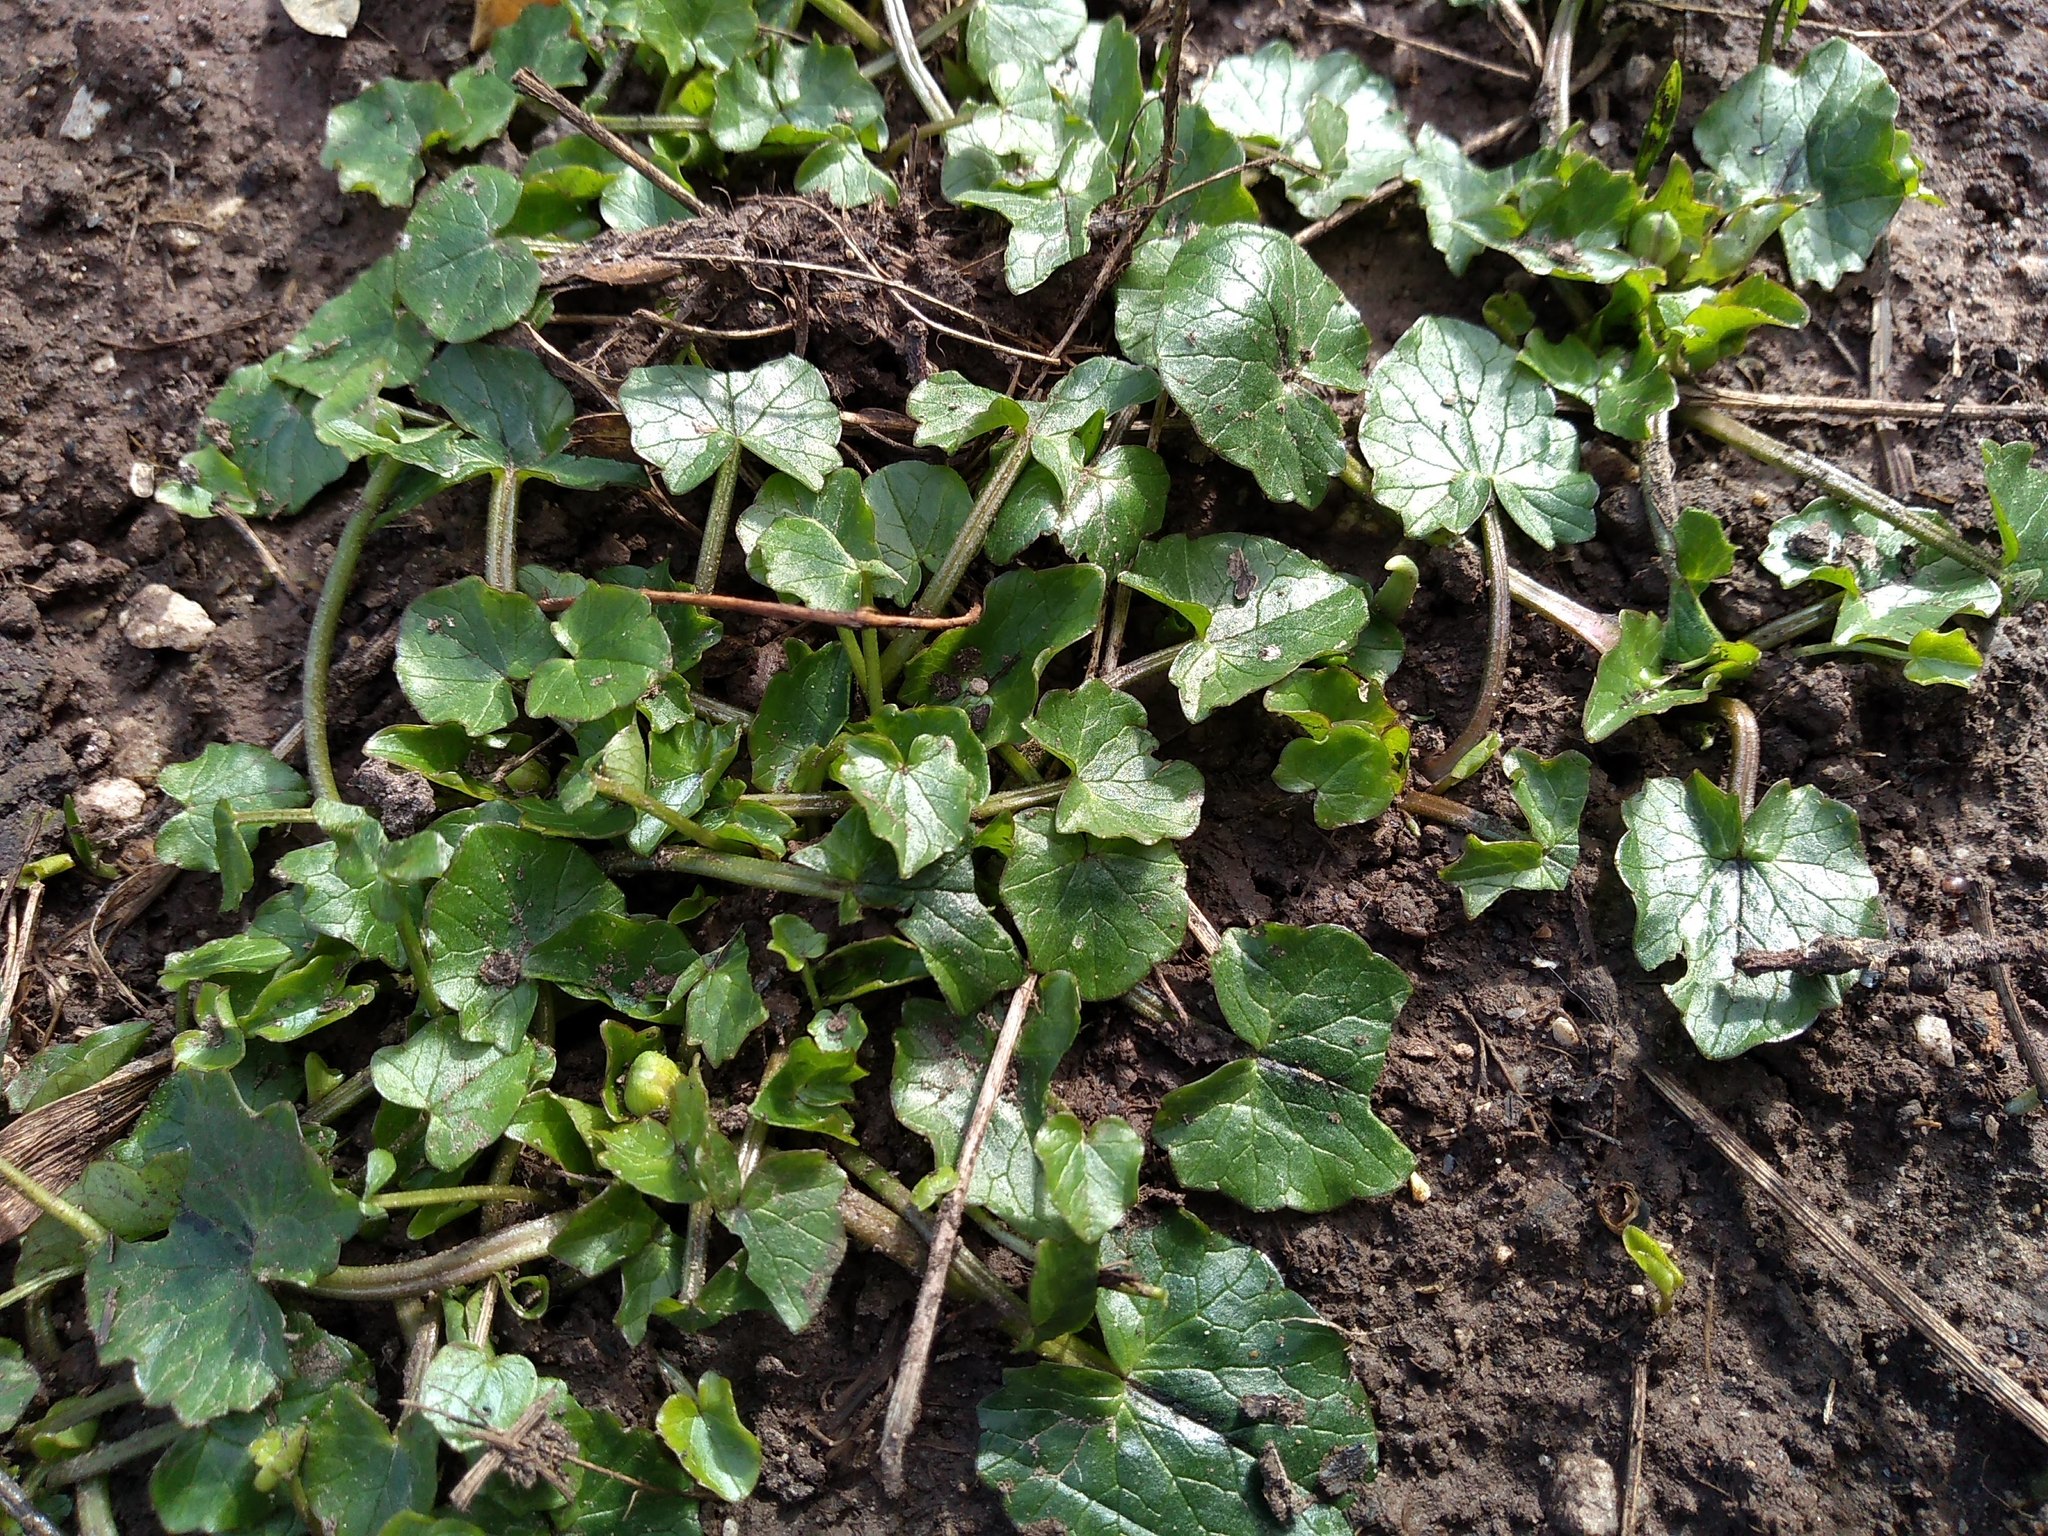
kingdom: Plantae
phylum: Tracheophyta
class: Magnoliopsida
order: Ranunculales
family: Ranunculaceae
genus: Ficaria
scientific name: Ficaria verna
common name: Lesser celandine
